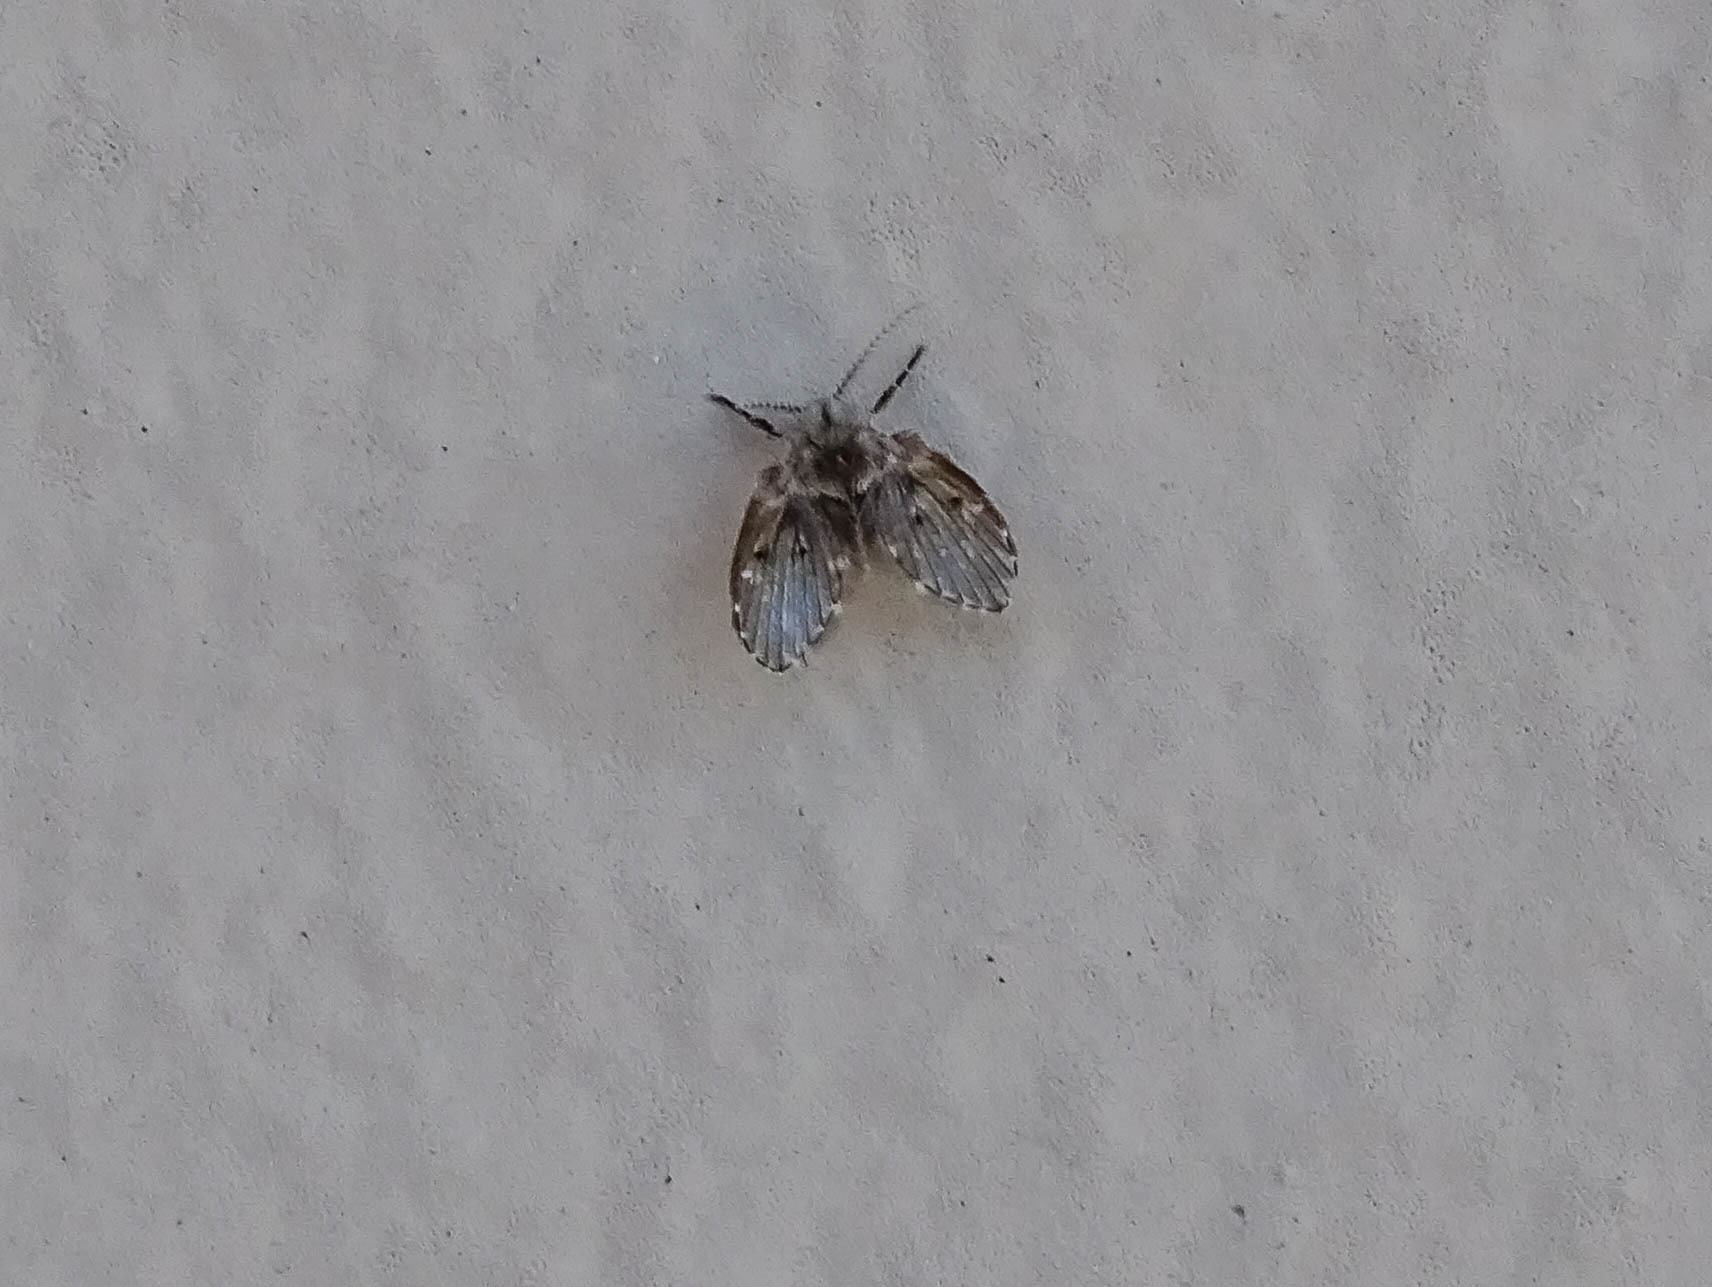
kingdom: Animalia
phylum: Arthropoda
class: Insecta
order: Diptera
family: Psychodidae
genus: Clogmia
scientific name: Clogmia albipunctatus
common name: White-spotted moth fly
